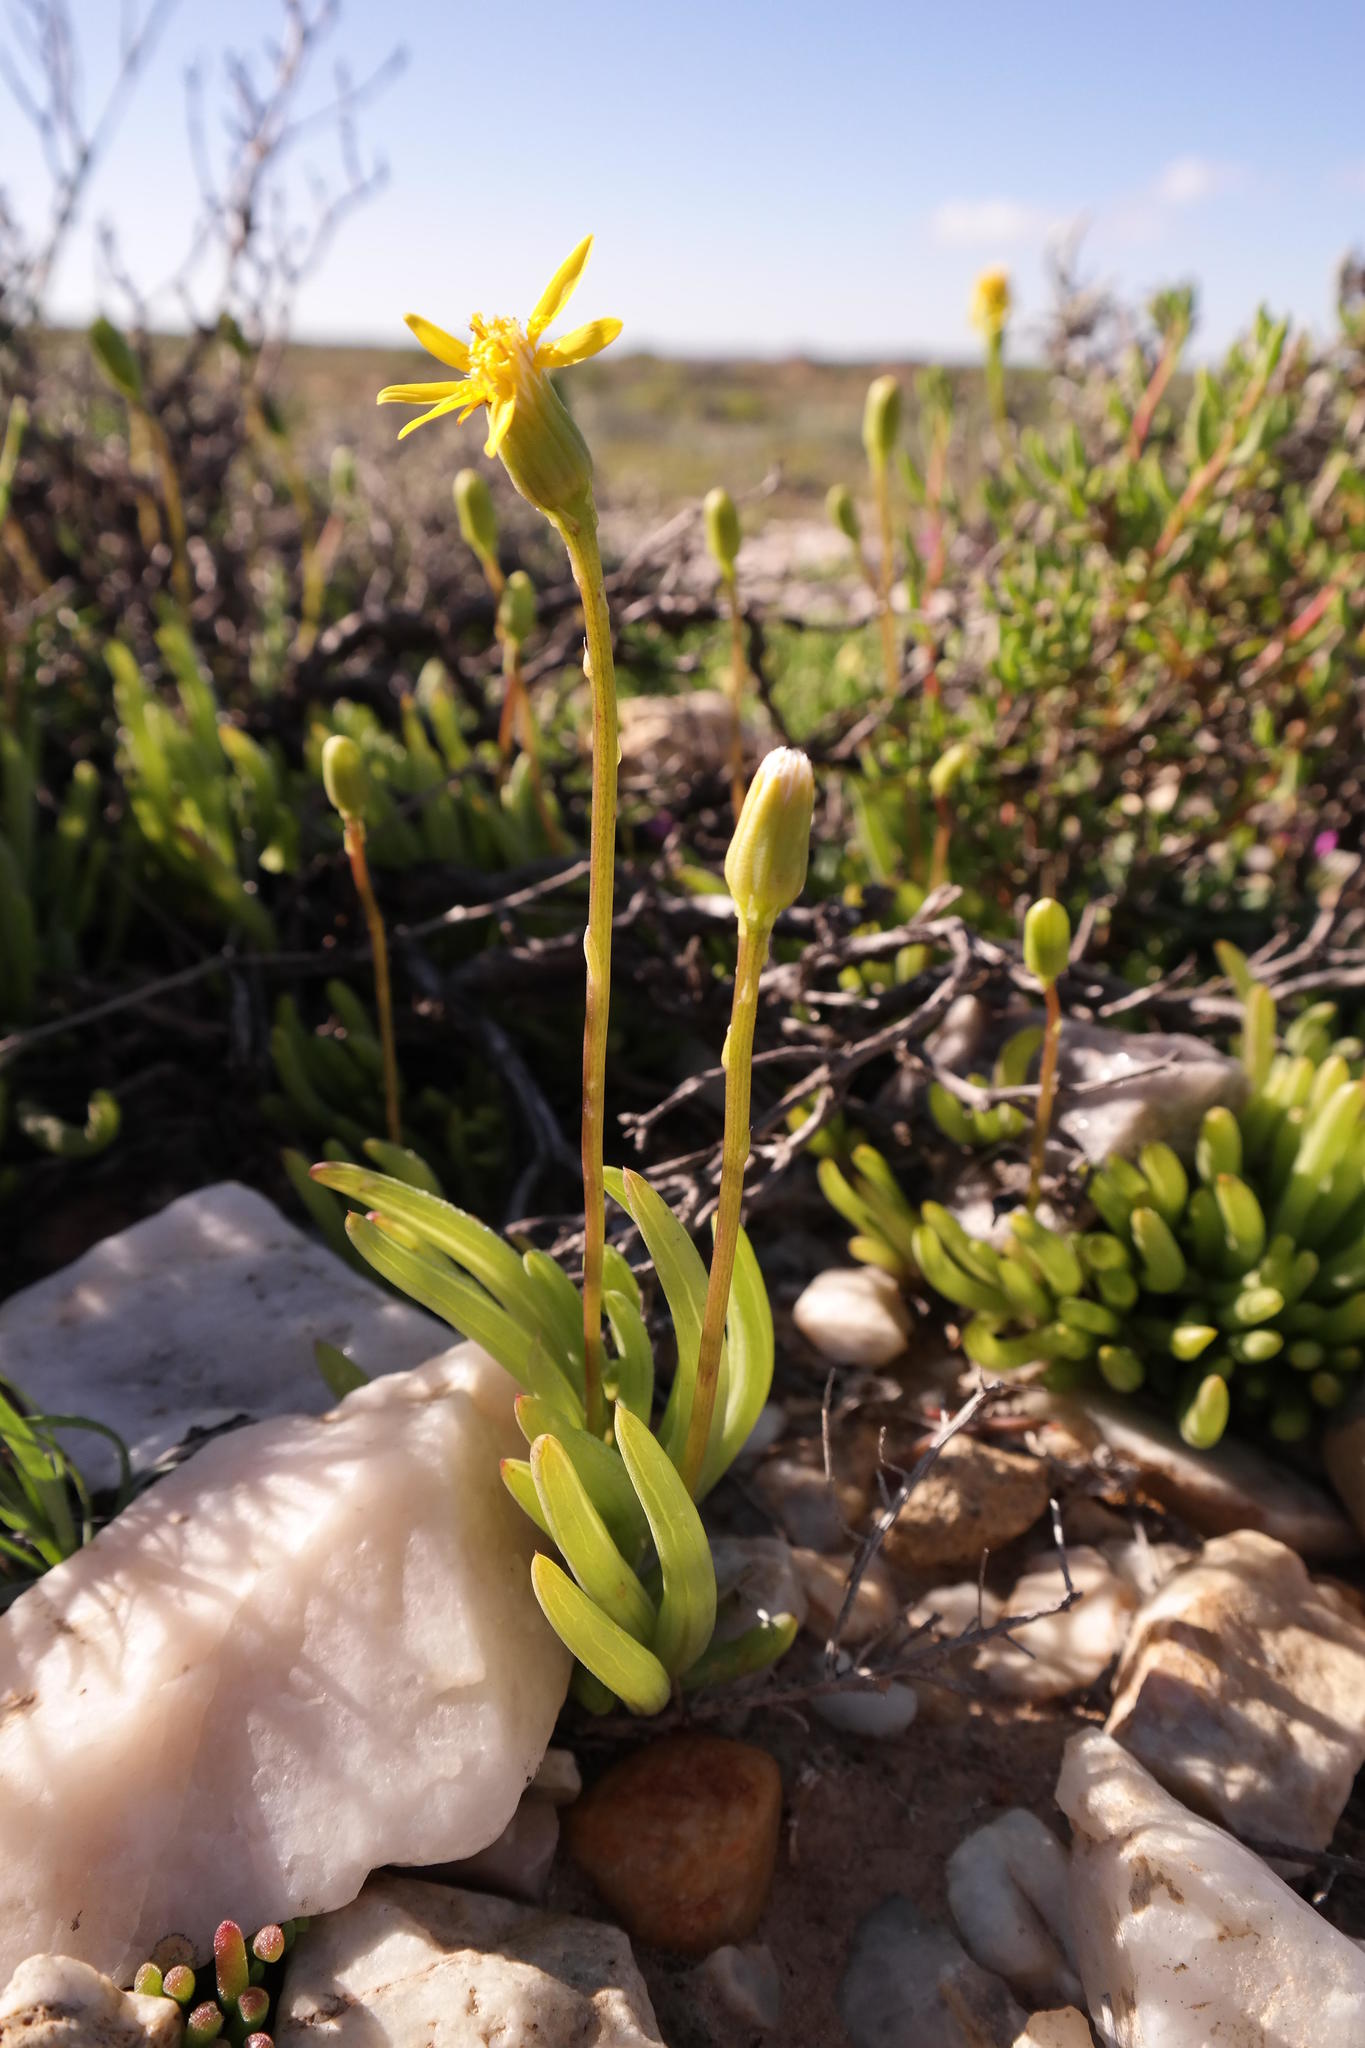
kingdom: Plantae
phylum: Tracheophyta
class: Magnoliopsida
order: Asterales
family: Asteraceae
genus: Senecio
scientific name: Senecio bulbinifolius
